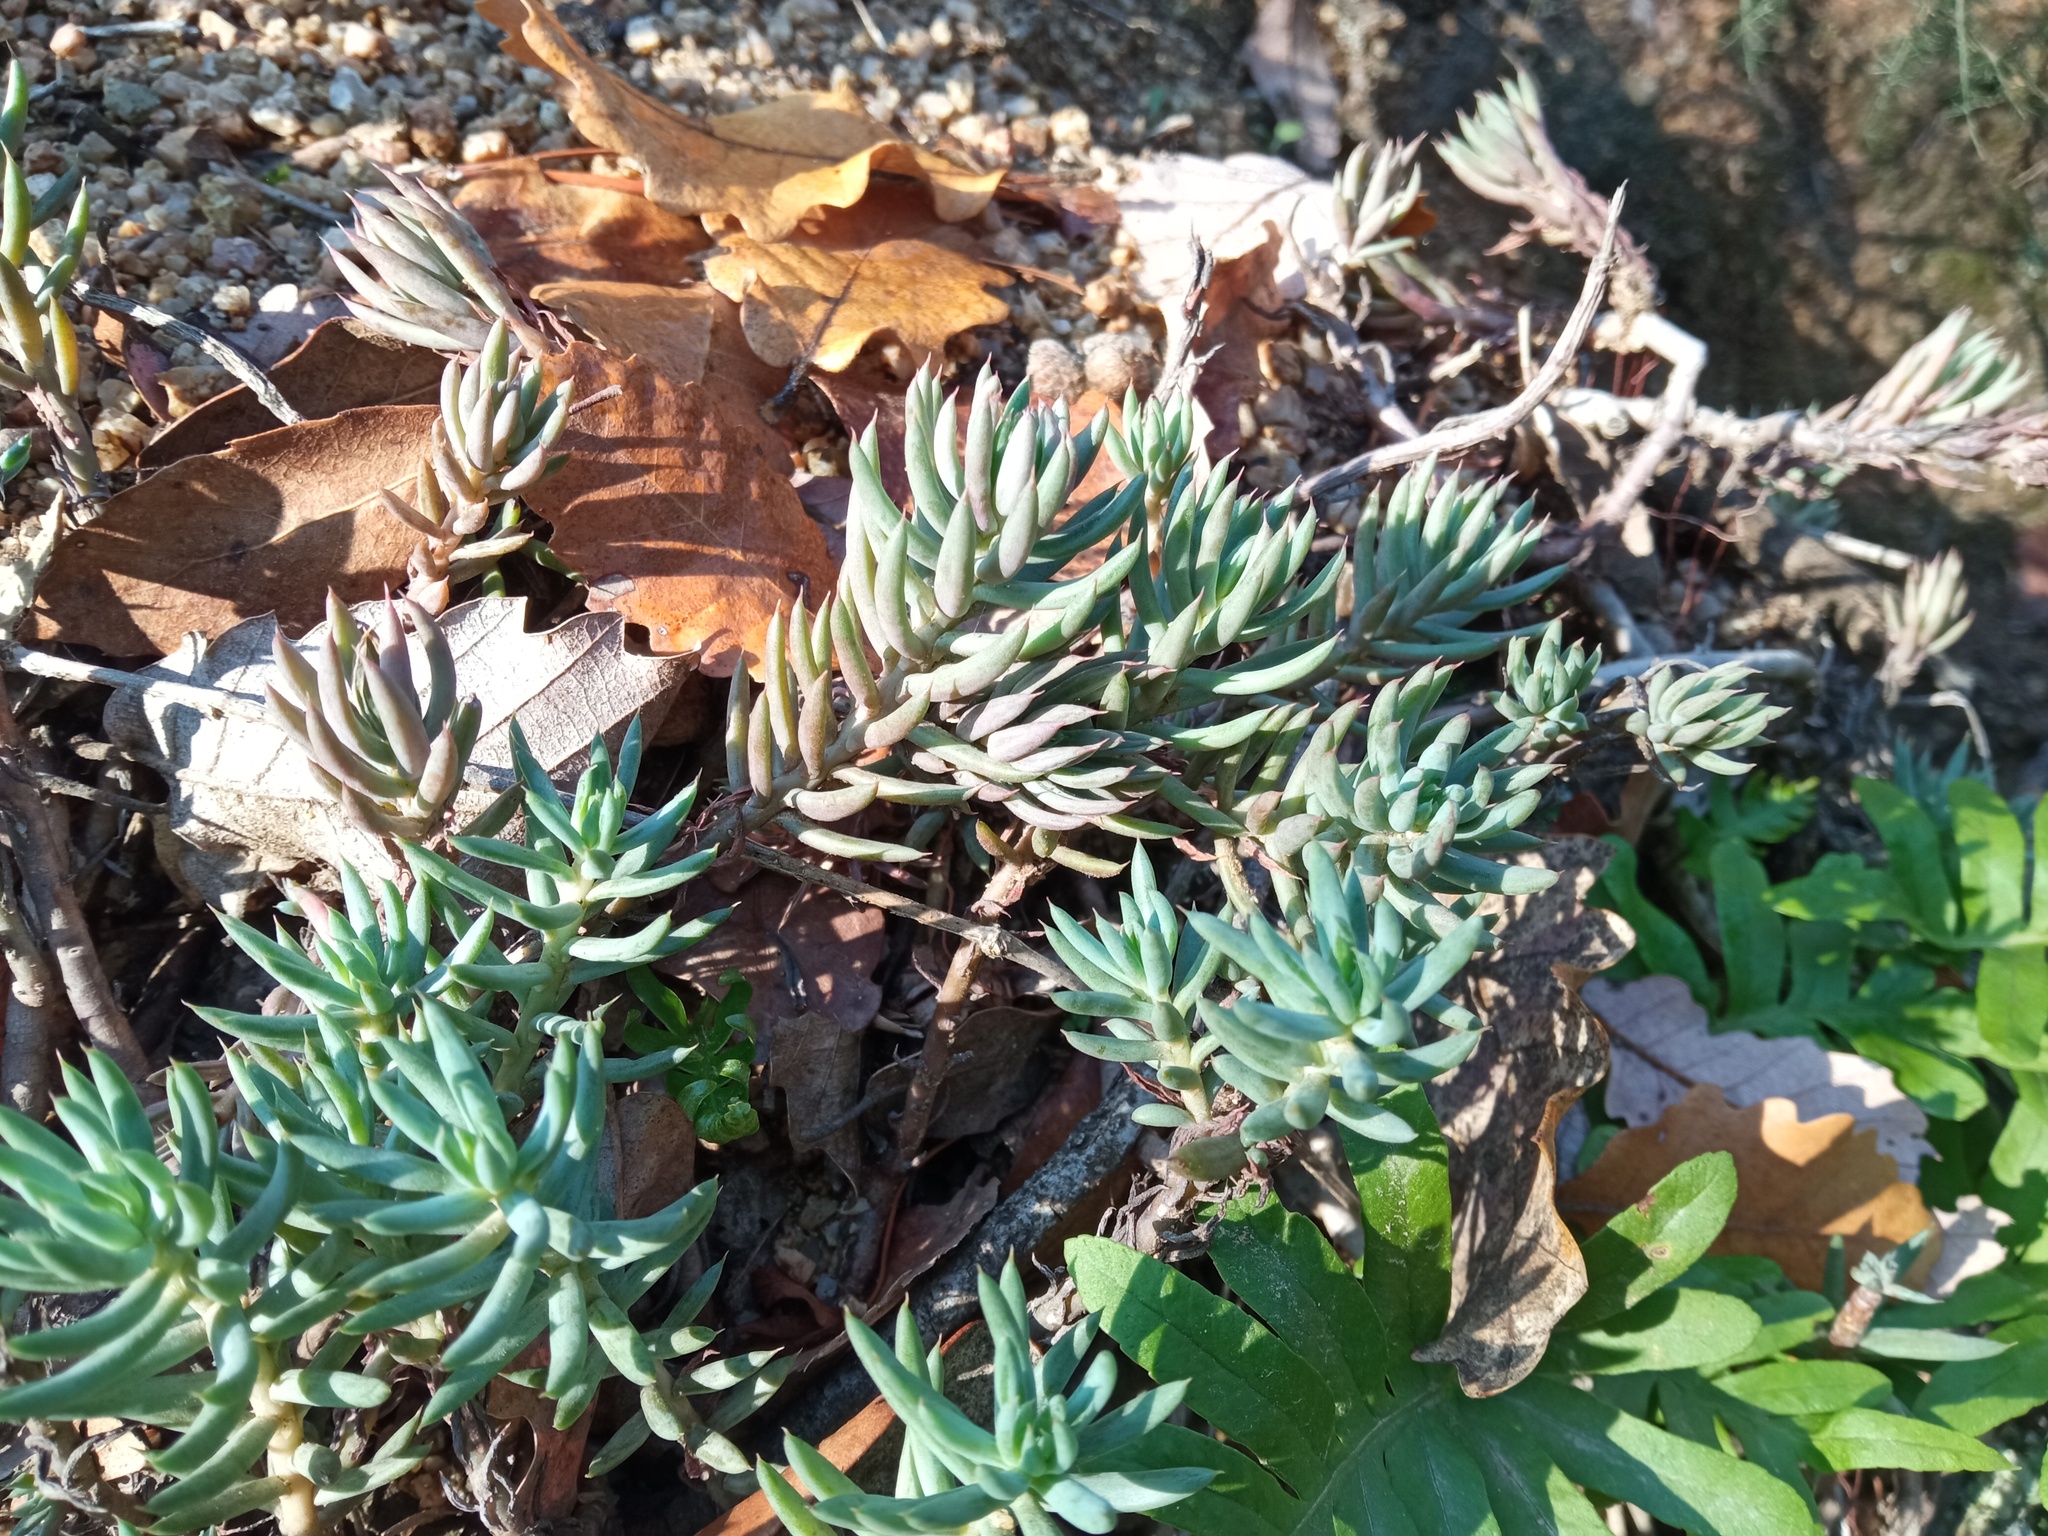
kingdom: Plantae
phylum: Tracheophyta
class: Magnoliopsida
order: Saxifragales
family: Crassulaceae
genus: Petrosedum
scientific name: Petrosedum sediforme
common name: Pale stonecrop
